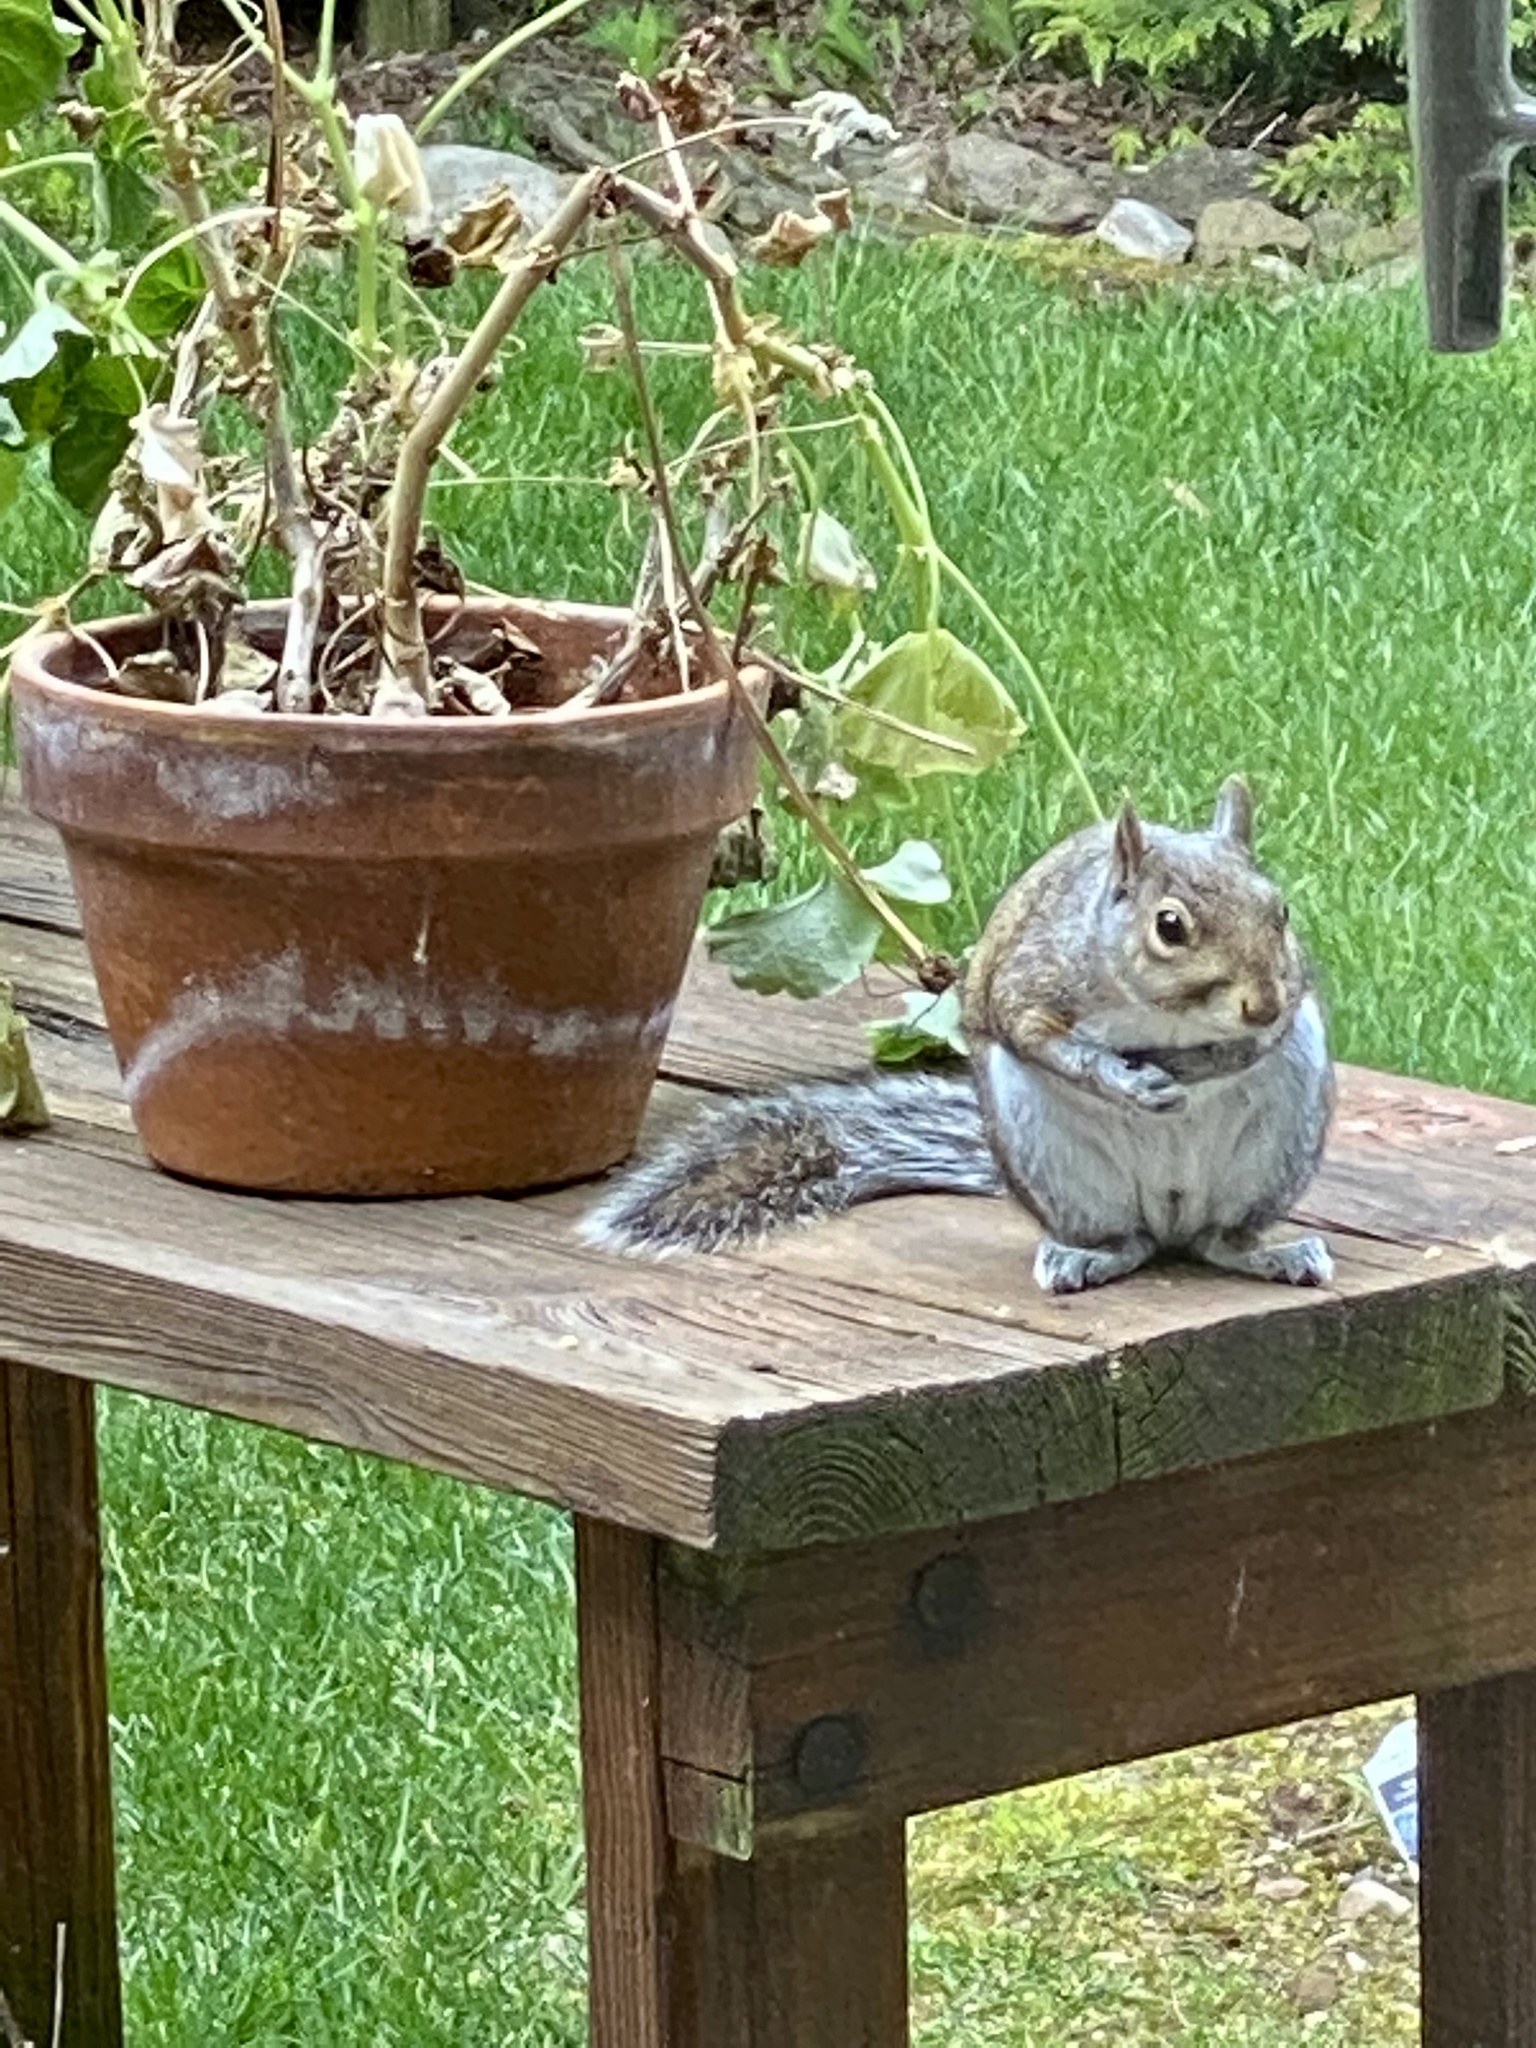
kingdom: Animalia
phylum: Chordata
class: Mammalia
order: Rodentia
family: Sciuridae
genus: Sciurus
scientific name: Sciurus carolinensis
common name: Eastern gray squirrel
